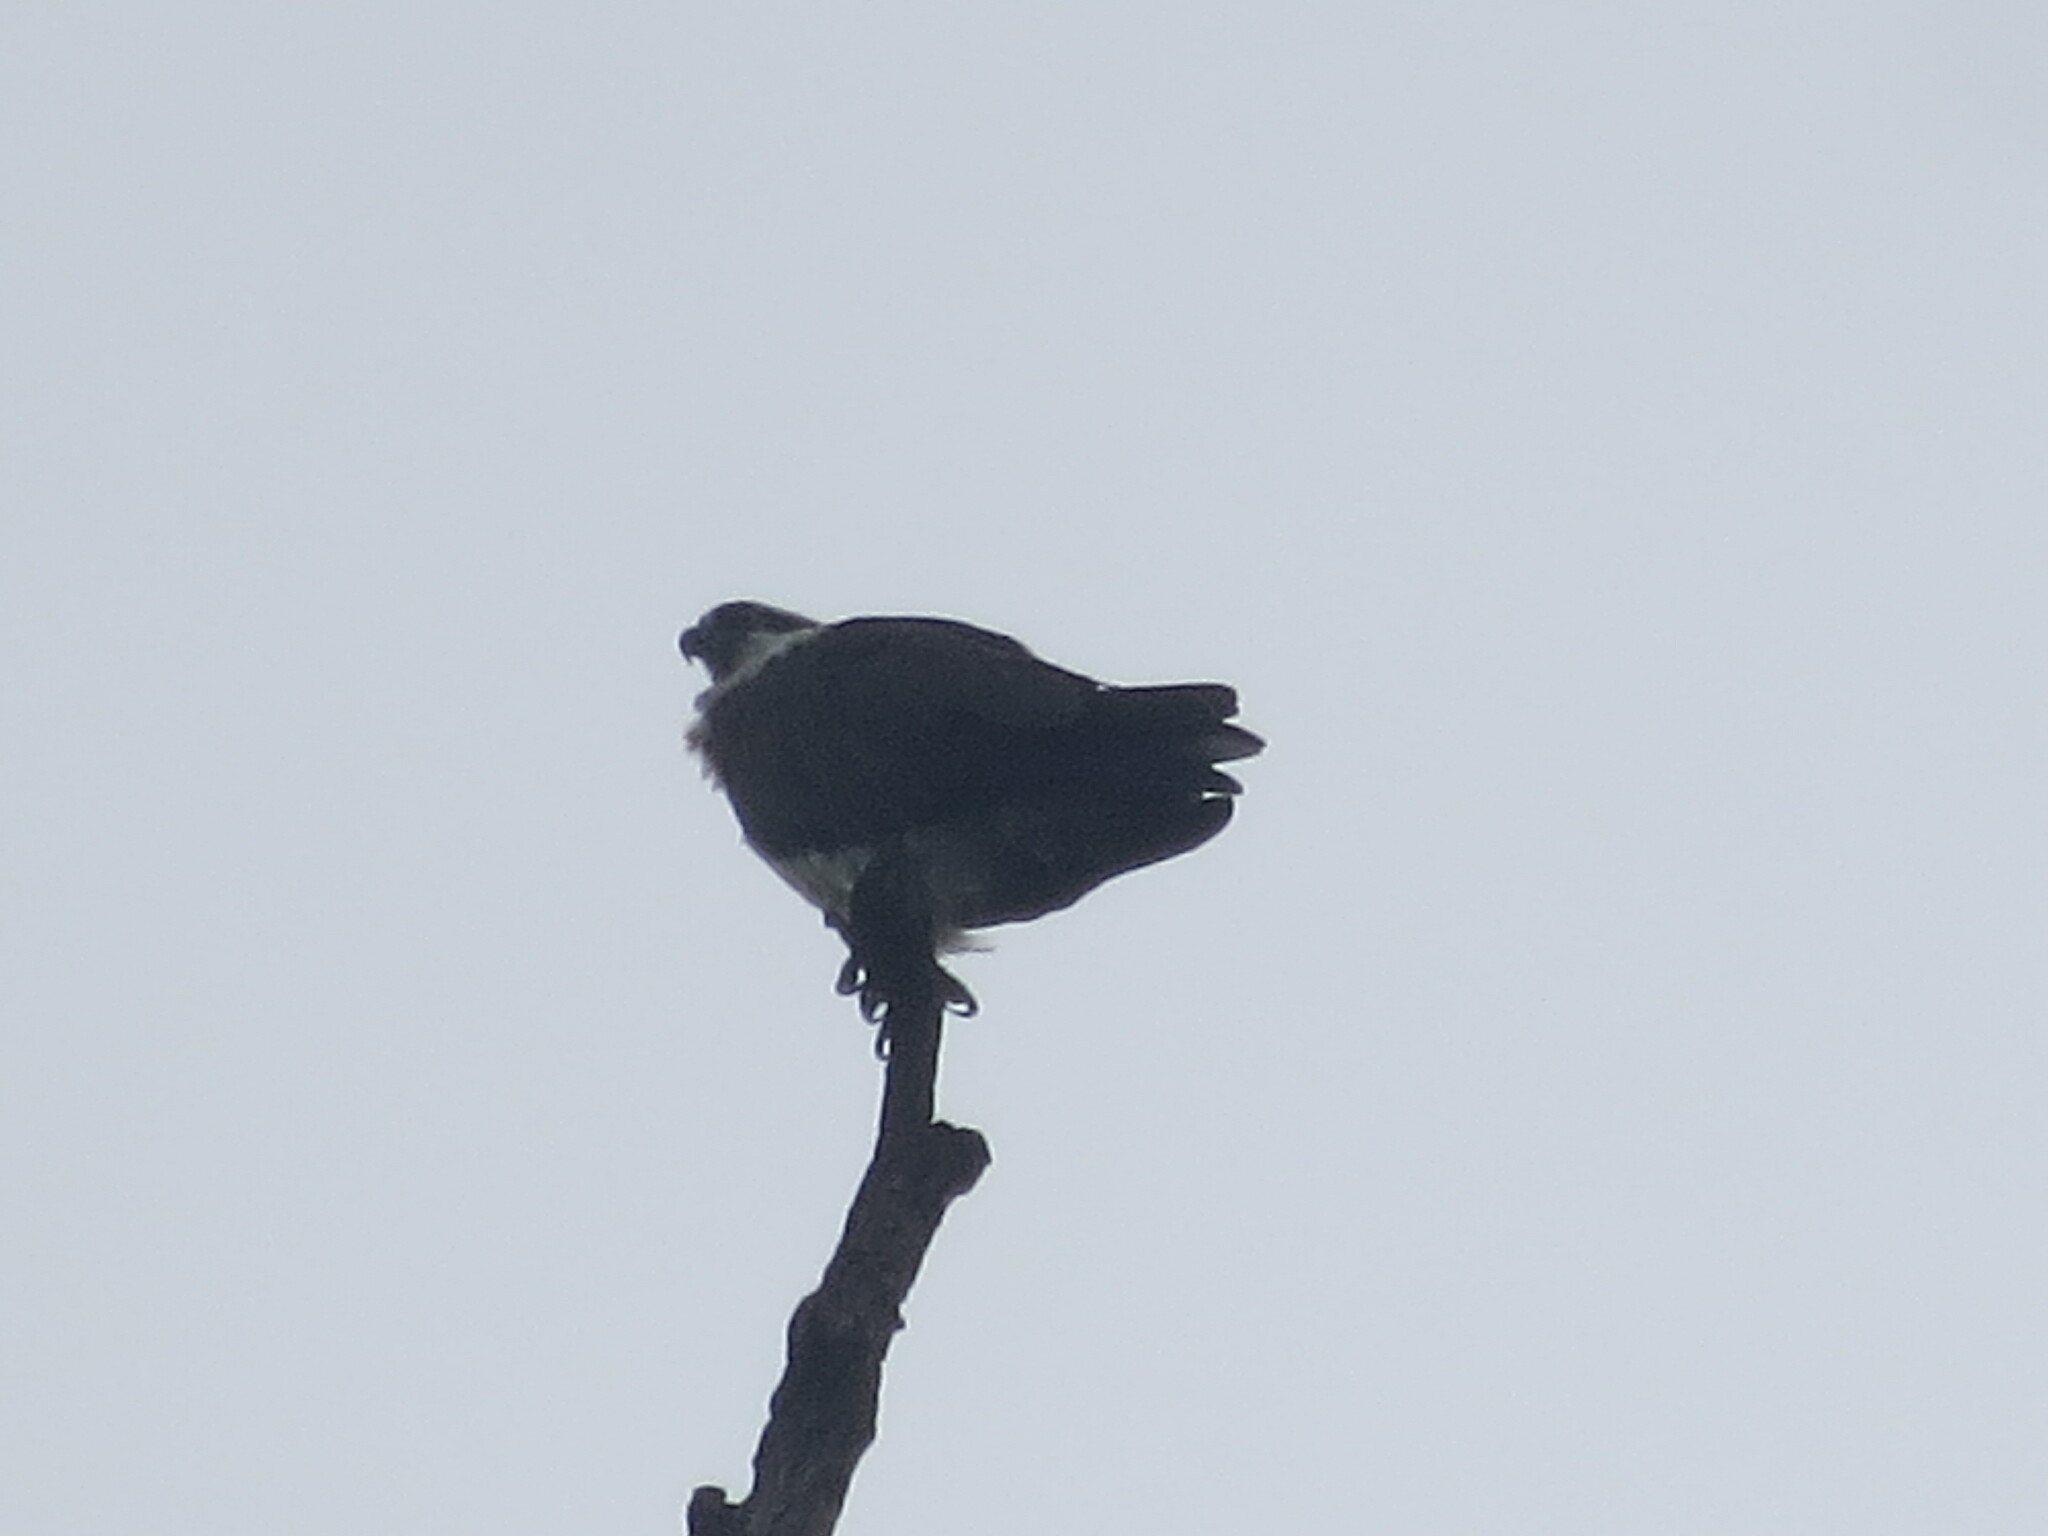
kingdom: Animalia
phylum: Chordata
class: Aves
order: Accipitriformes
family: Pandionidae
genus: Pandion
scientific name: Pandion haliaetus
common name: Osprey
